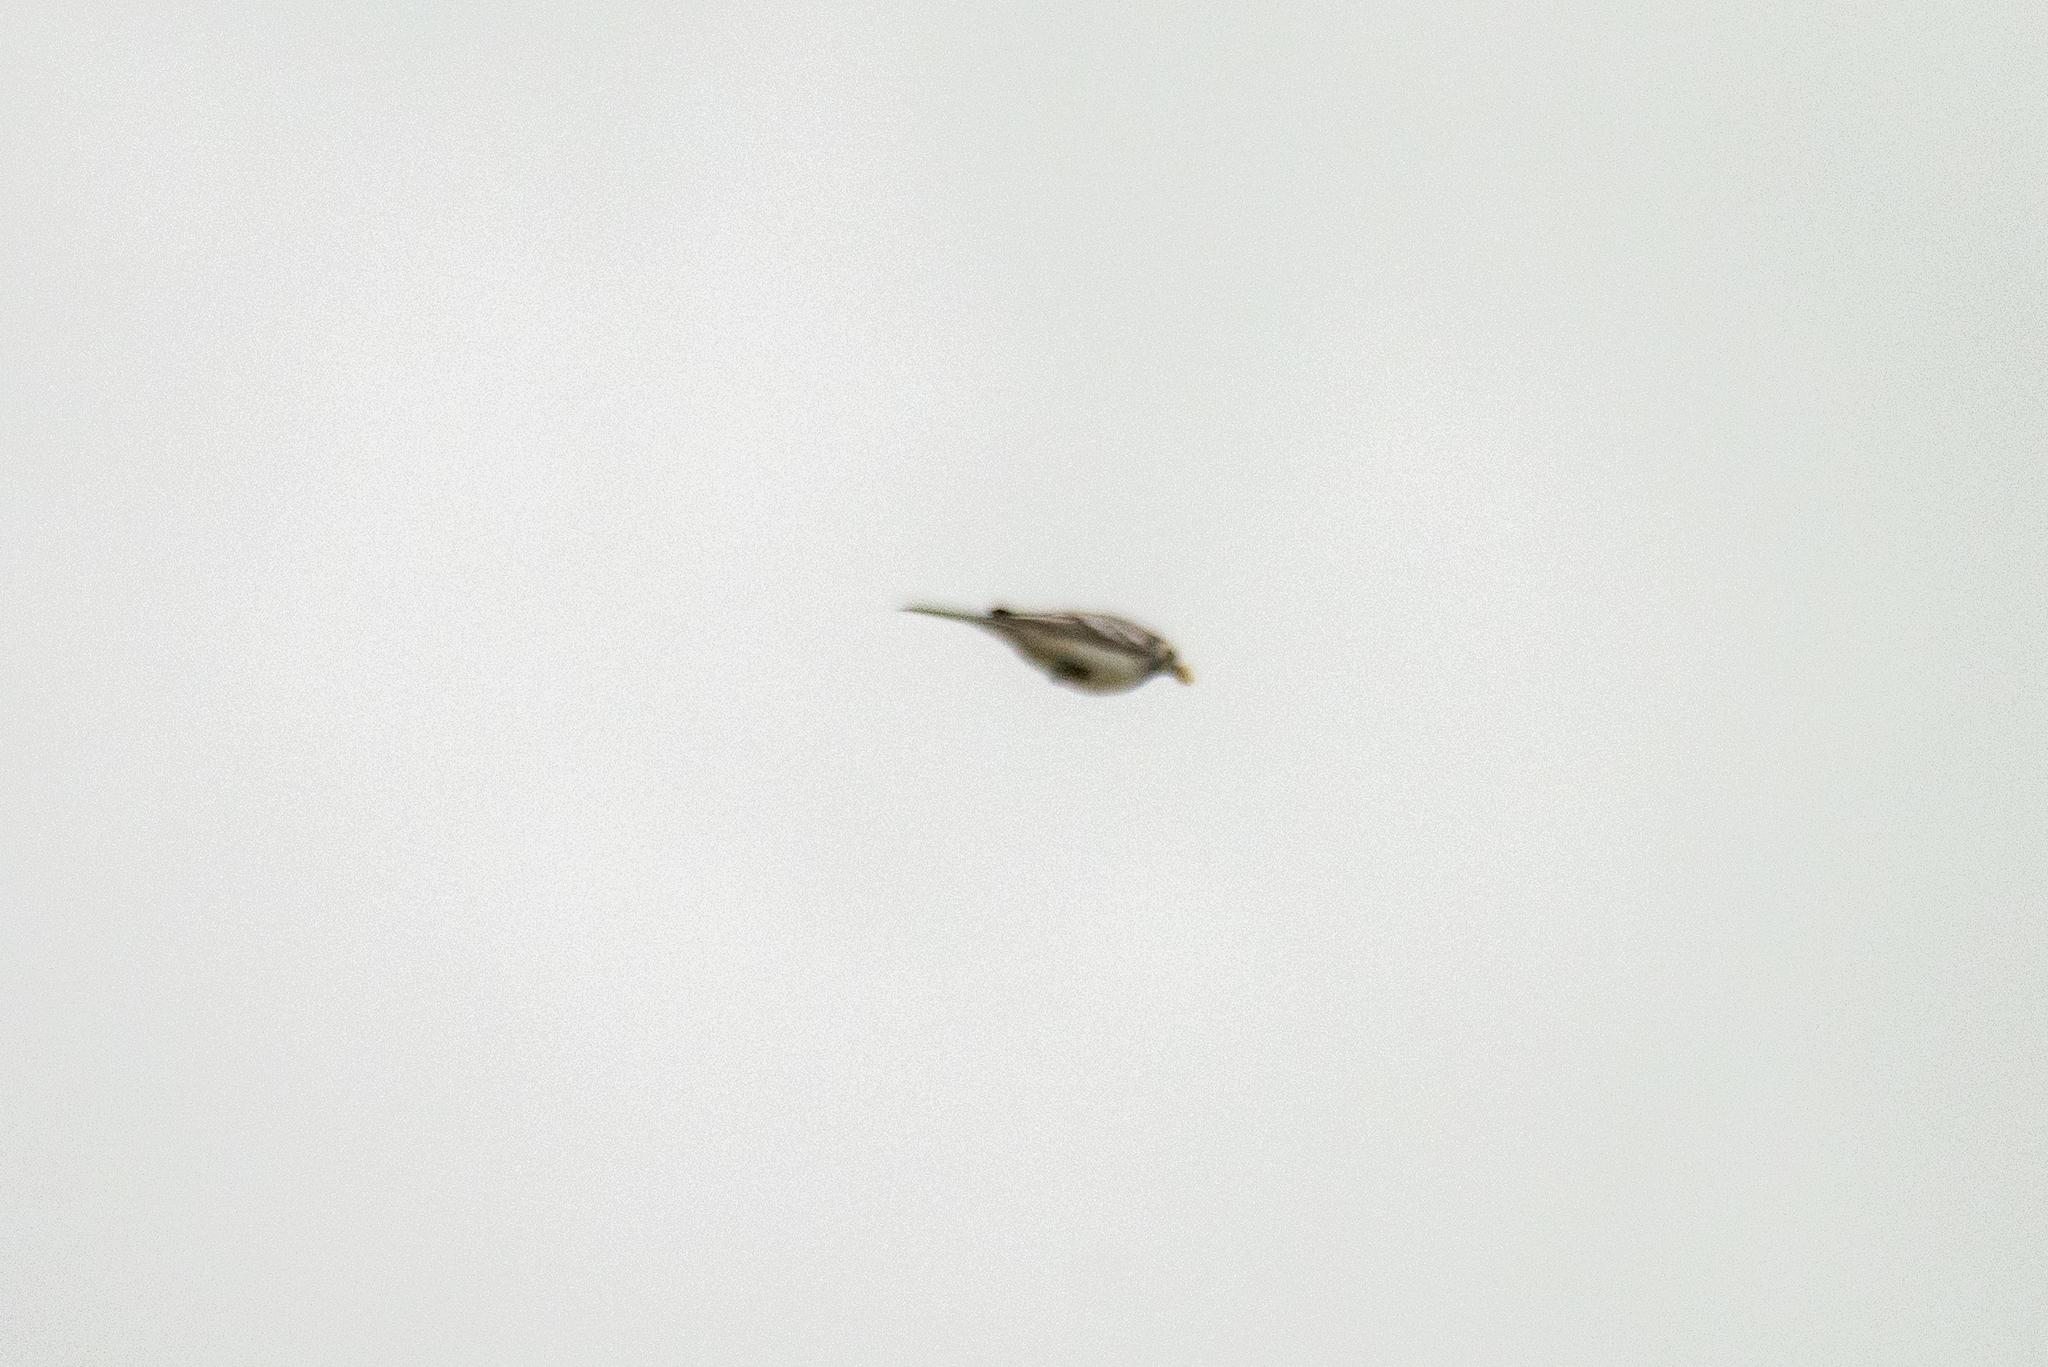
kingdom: Animalia
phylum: Chordata
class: Aves
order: Passeriformes
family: Motacillidae
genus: Motacilla
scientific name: Motacilla alba
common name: White wagtail
